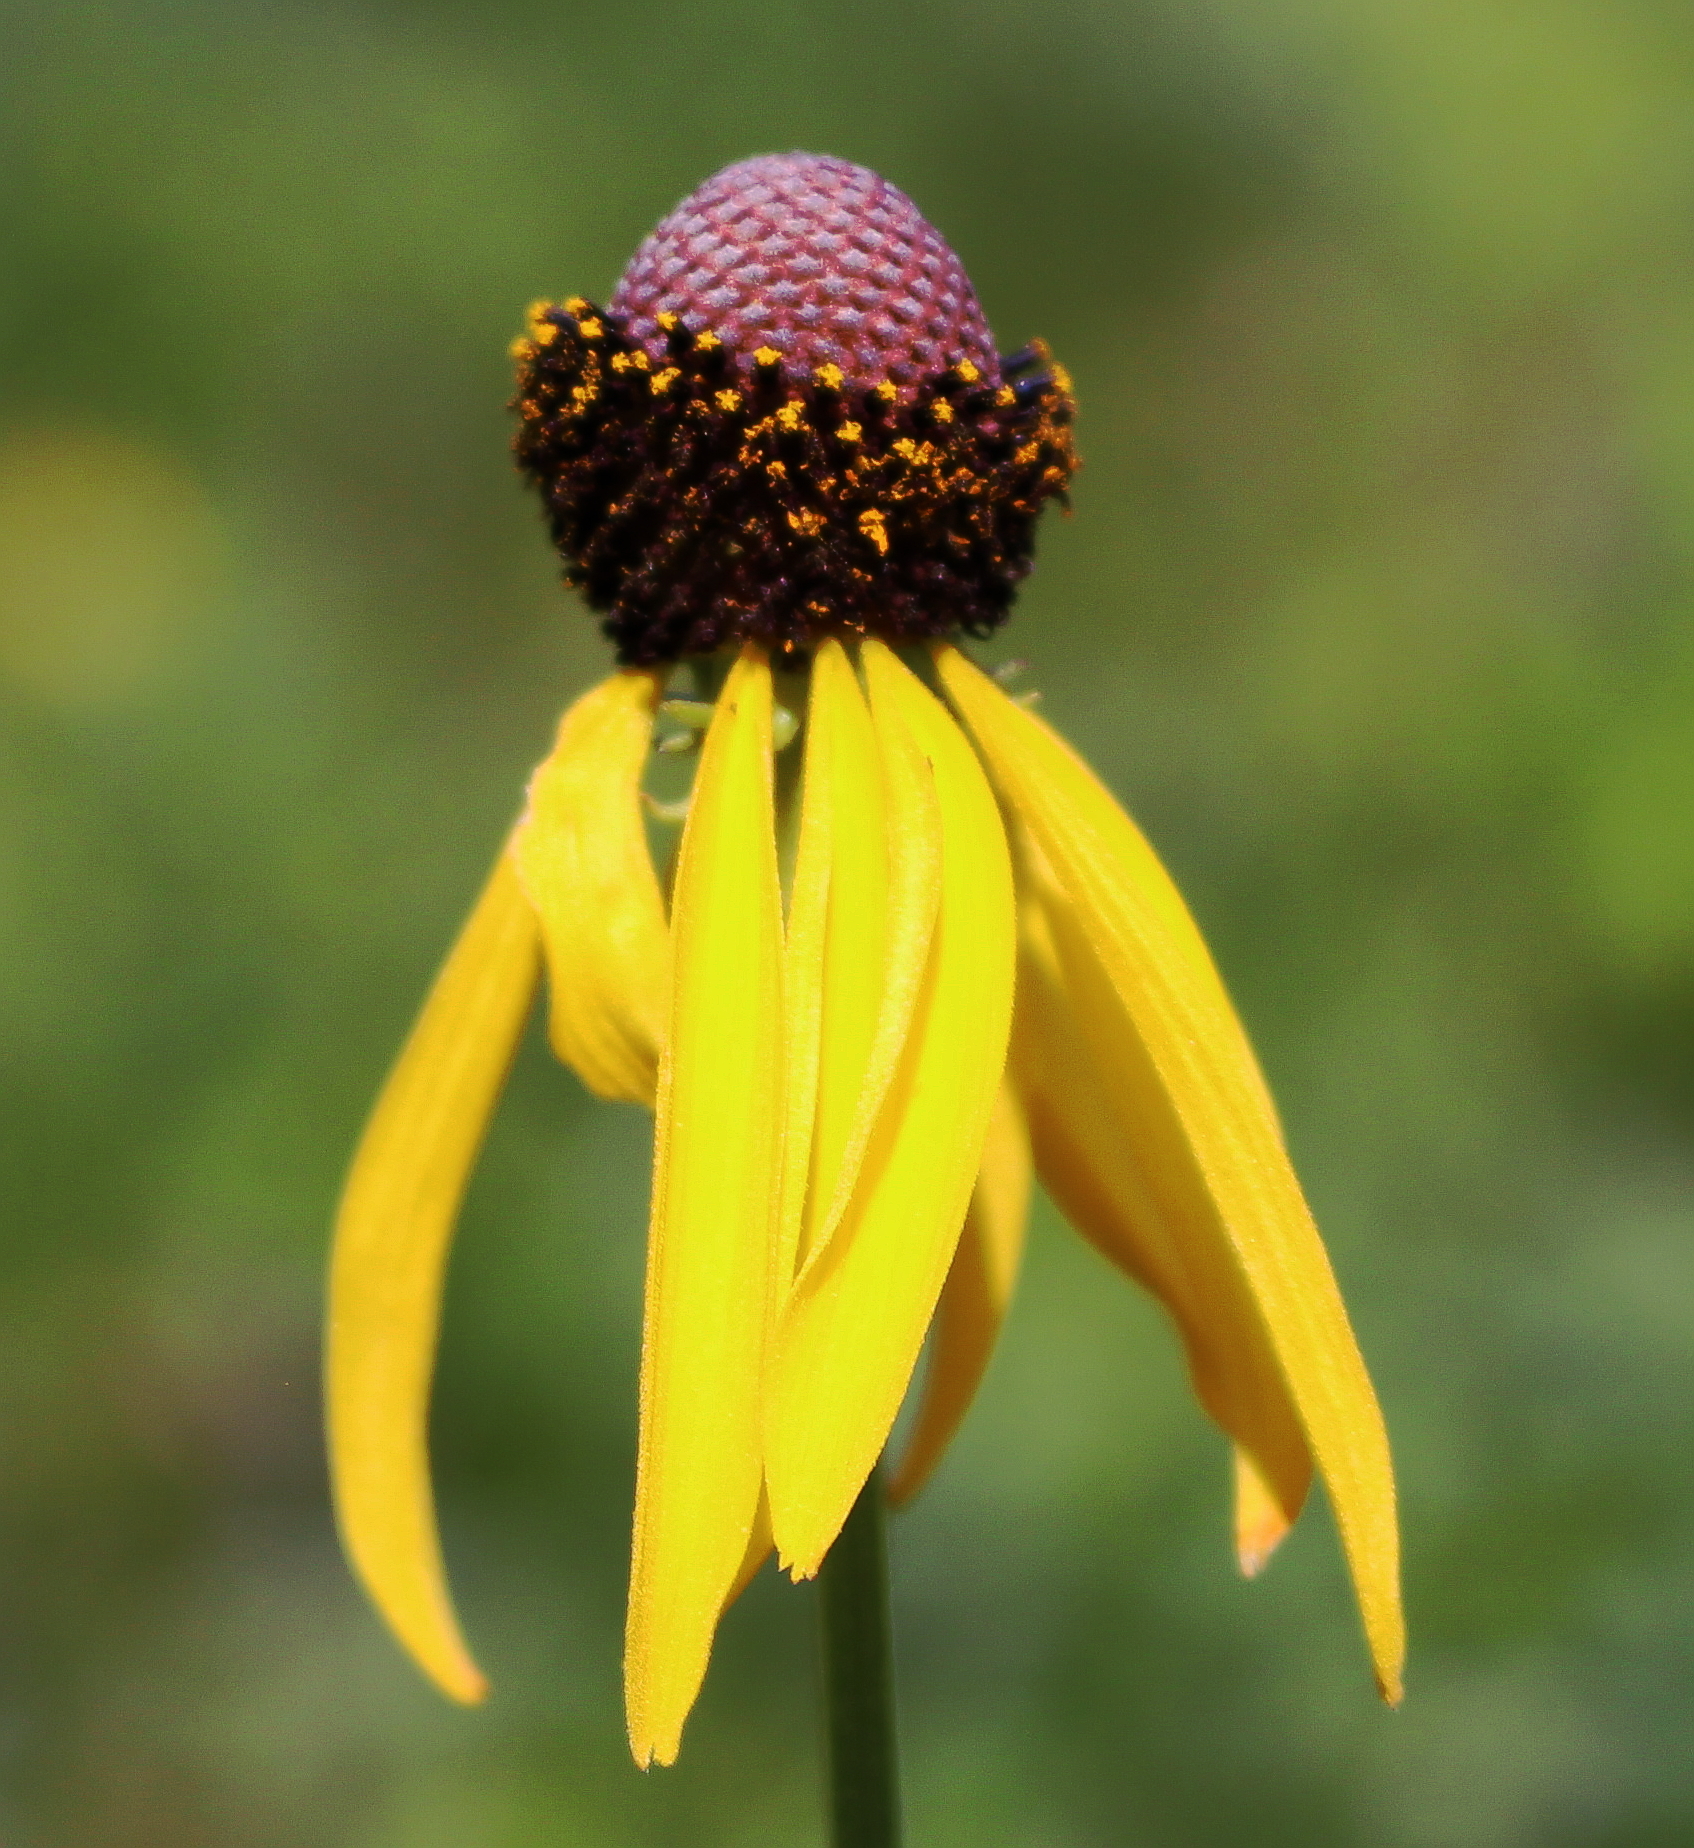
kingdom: Plantae
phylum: Tracheophyta
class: Magnoliopsida
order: Asterales
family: Asteraceae
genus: Ratibida
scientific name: Ratibida pinnata
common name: Drooping prairie-coneflower
